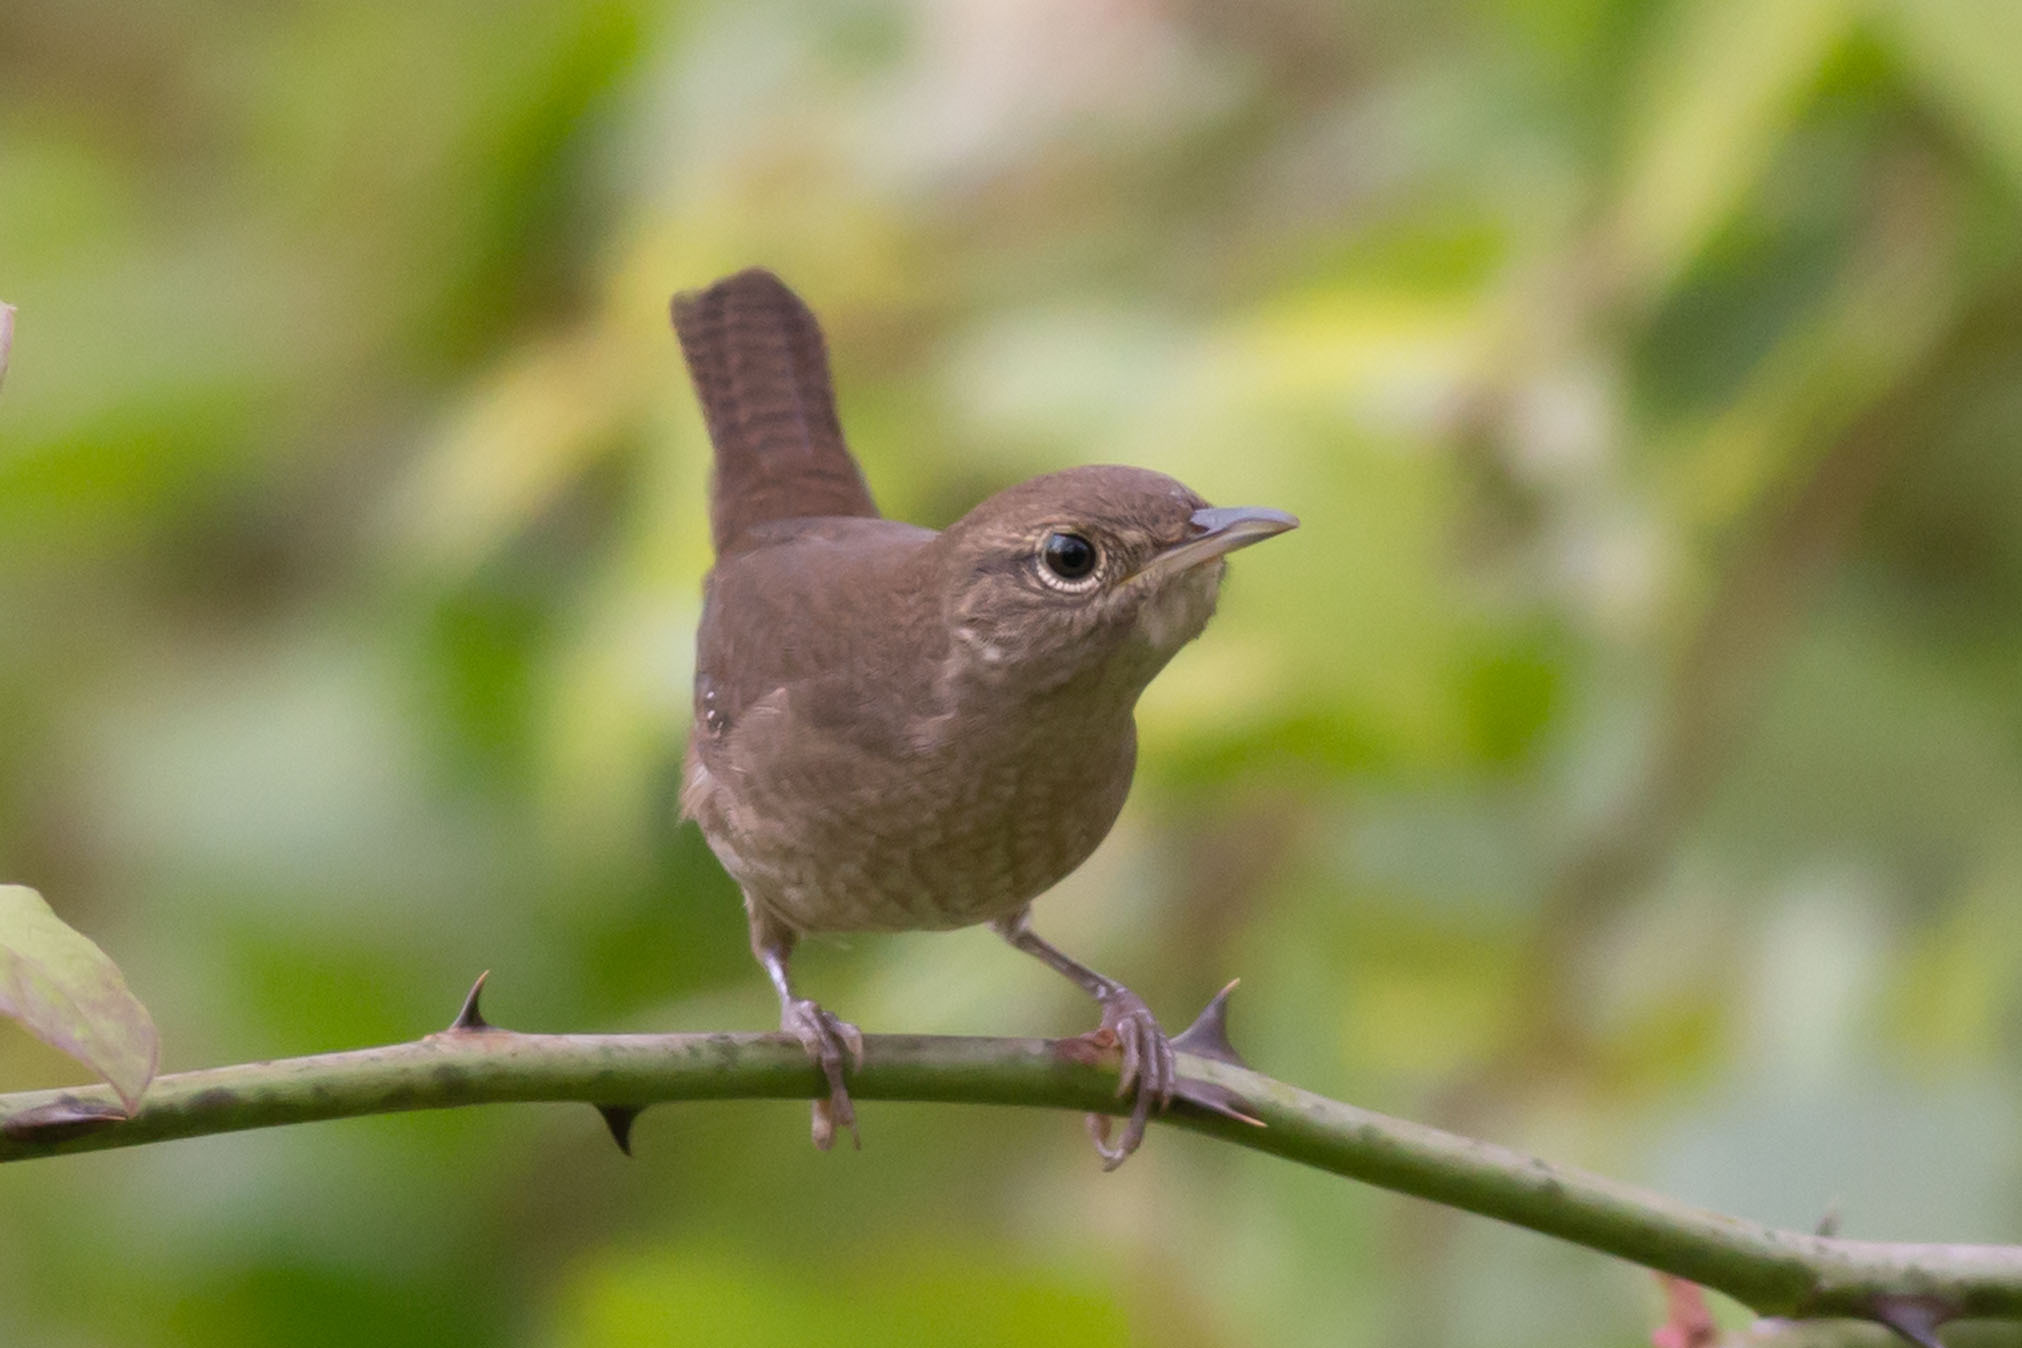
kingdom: Animalia
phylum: Chordata
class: Aves
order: Passeriformes
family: Troglodytidae
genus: Troglodytes
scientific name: Troglodytes aedon
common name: House wren
